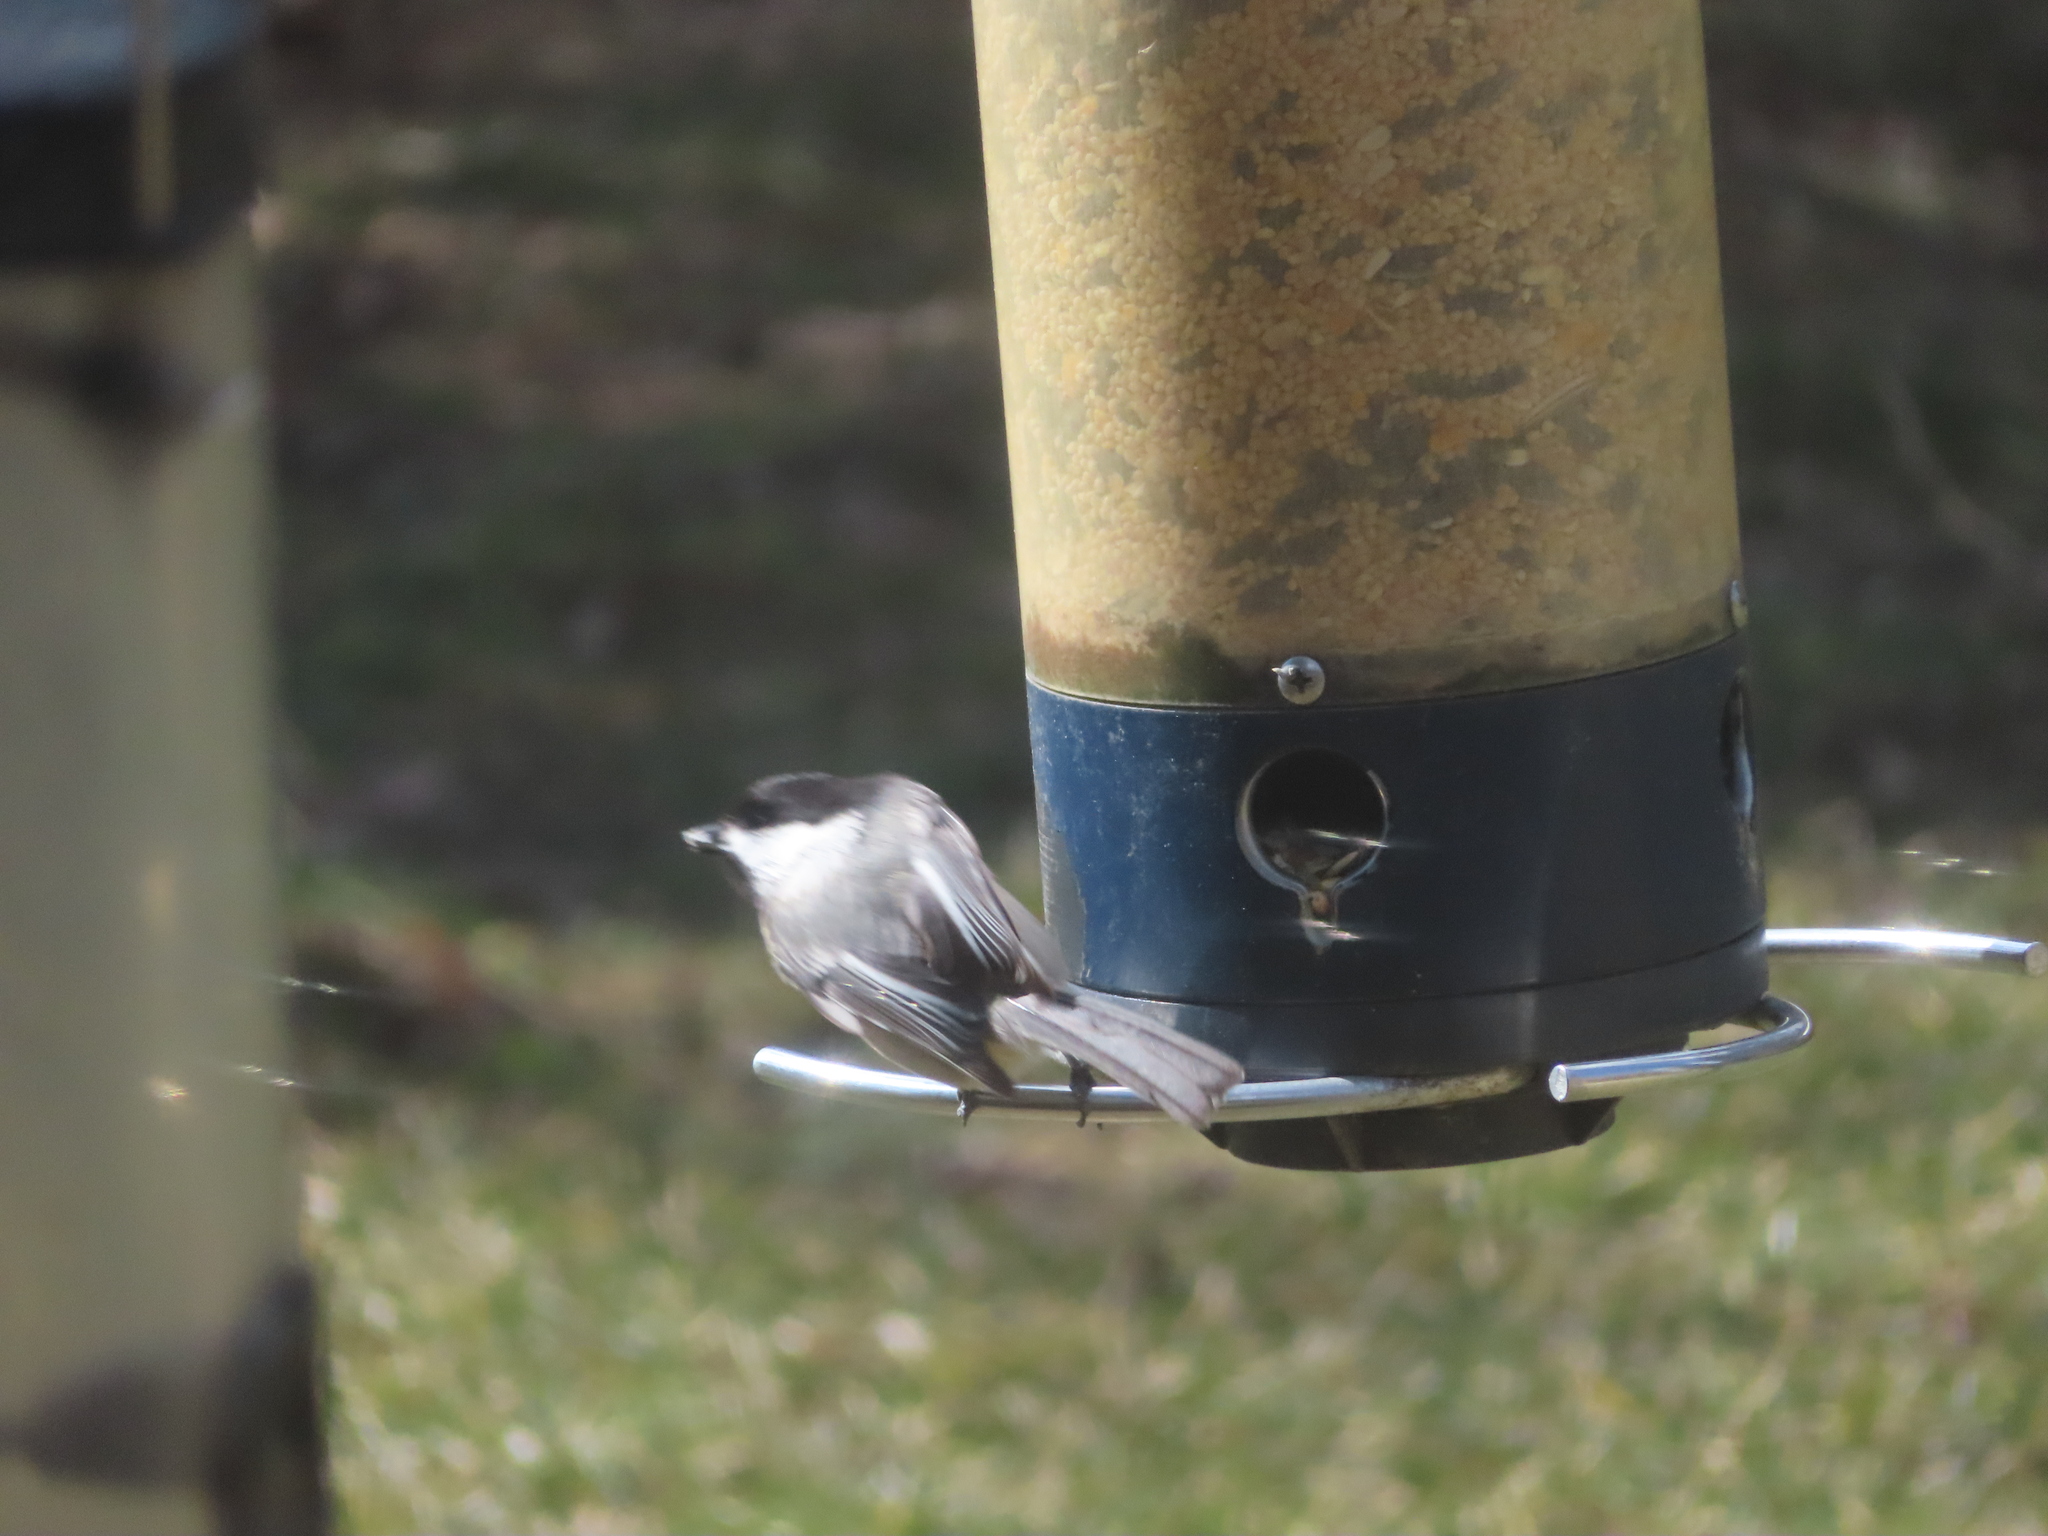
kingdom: Animalia
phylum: Chordata
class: Aves
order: Passeriformes
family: Paridae
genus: Poecile
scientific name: Poecile atricapillus
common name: Black-capped chickadee
